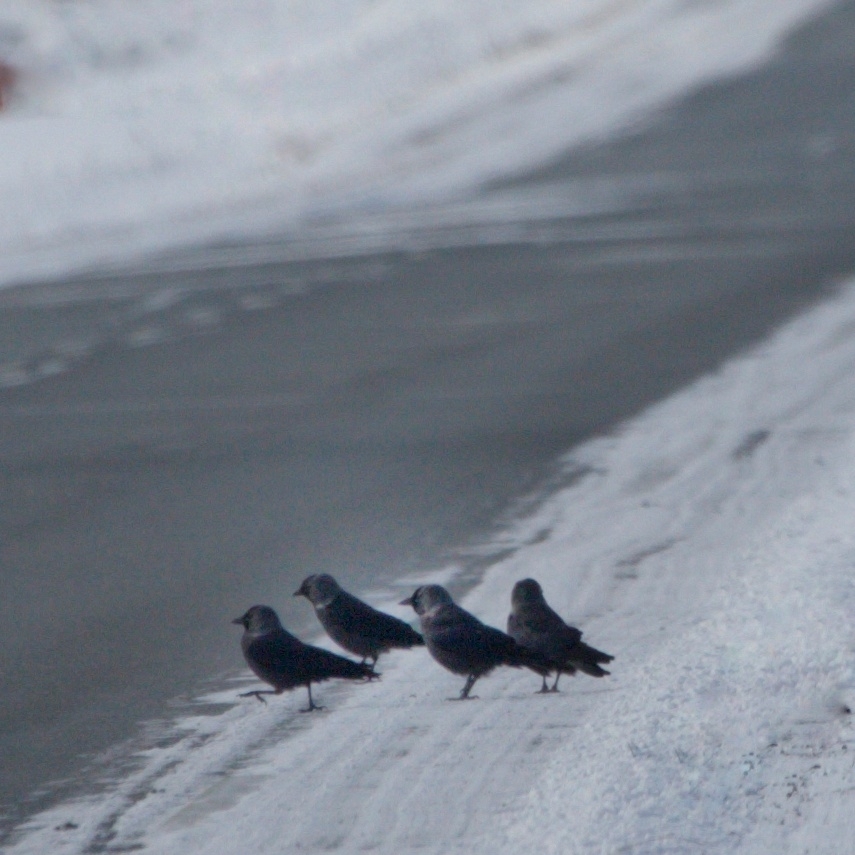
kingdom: Animalia
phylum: Chordata
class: Aves
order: Passeriformes
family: Corvidae
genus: Coloeus
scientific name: Coloeus monedula
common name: Western jackdaw
